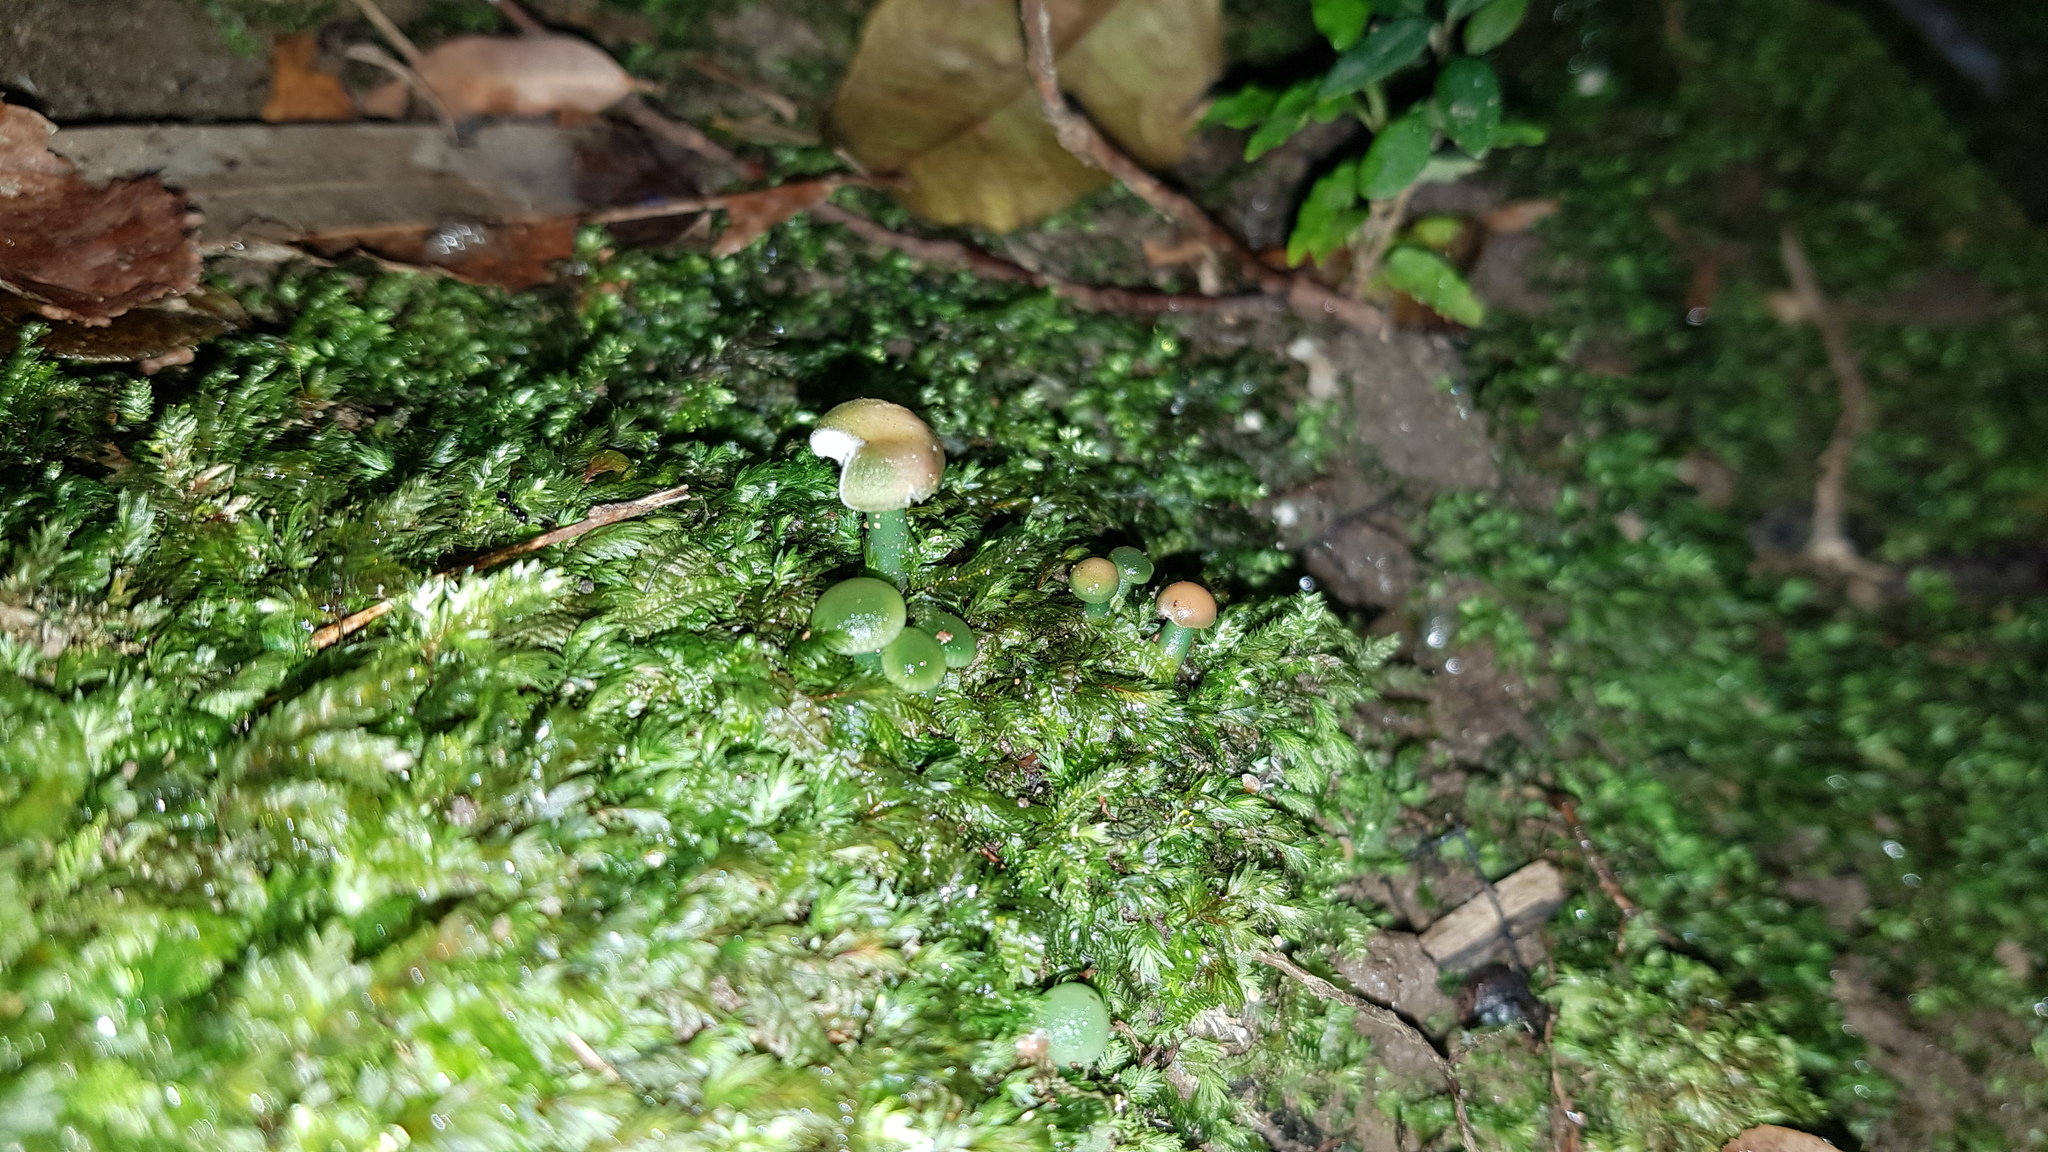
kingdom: Fungi
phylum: Basidiomycota
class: Agaricomycetes
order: Agaricales
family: Hygrophoraceae
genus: Humidicutis
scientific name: Humidicutis taekeri
